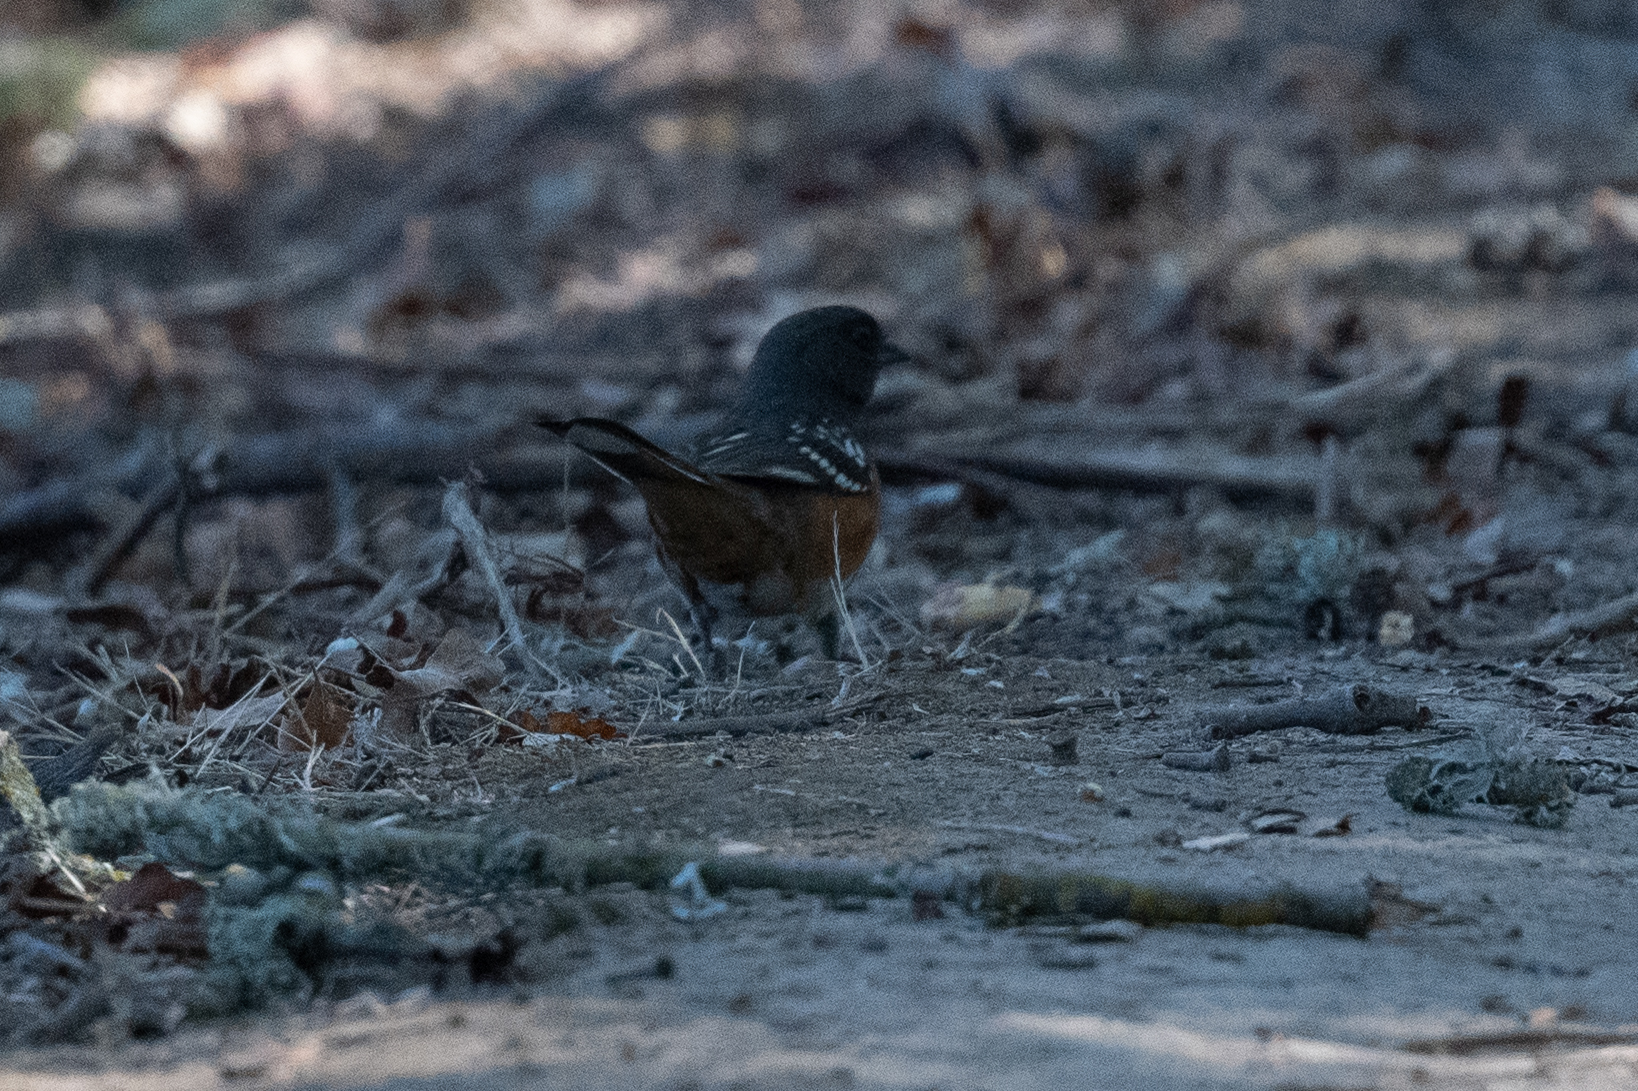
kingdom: Animalia
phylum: Chordata
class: Aves
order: Passeriformes
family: Passerellidae
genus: Pipilo
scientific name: Pipilo maculatus
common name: Spotted towhee
